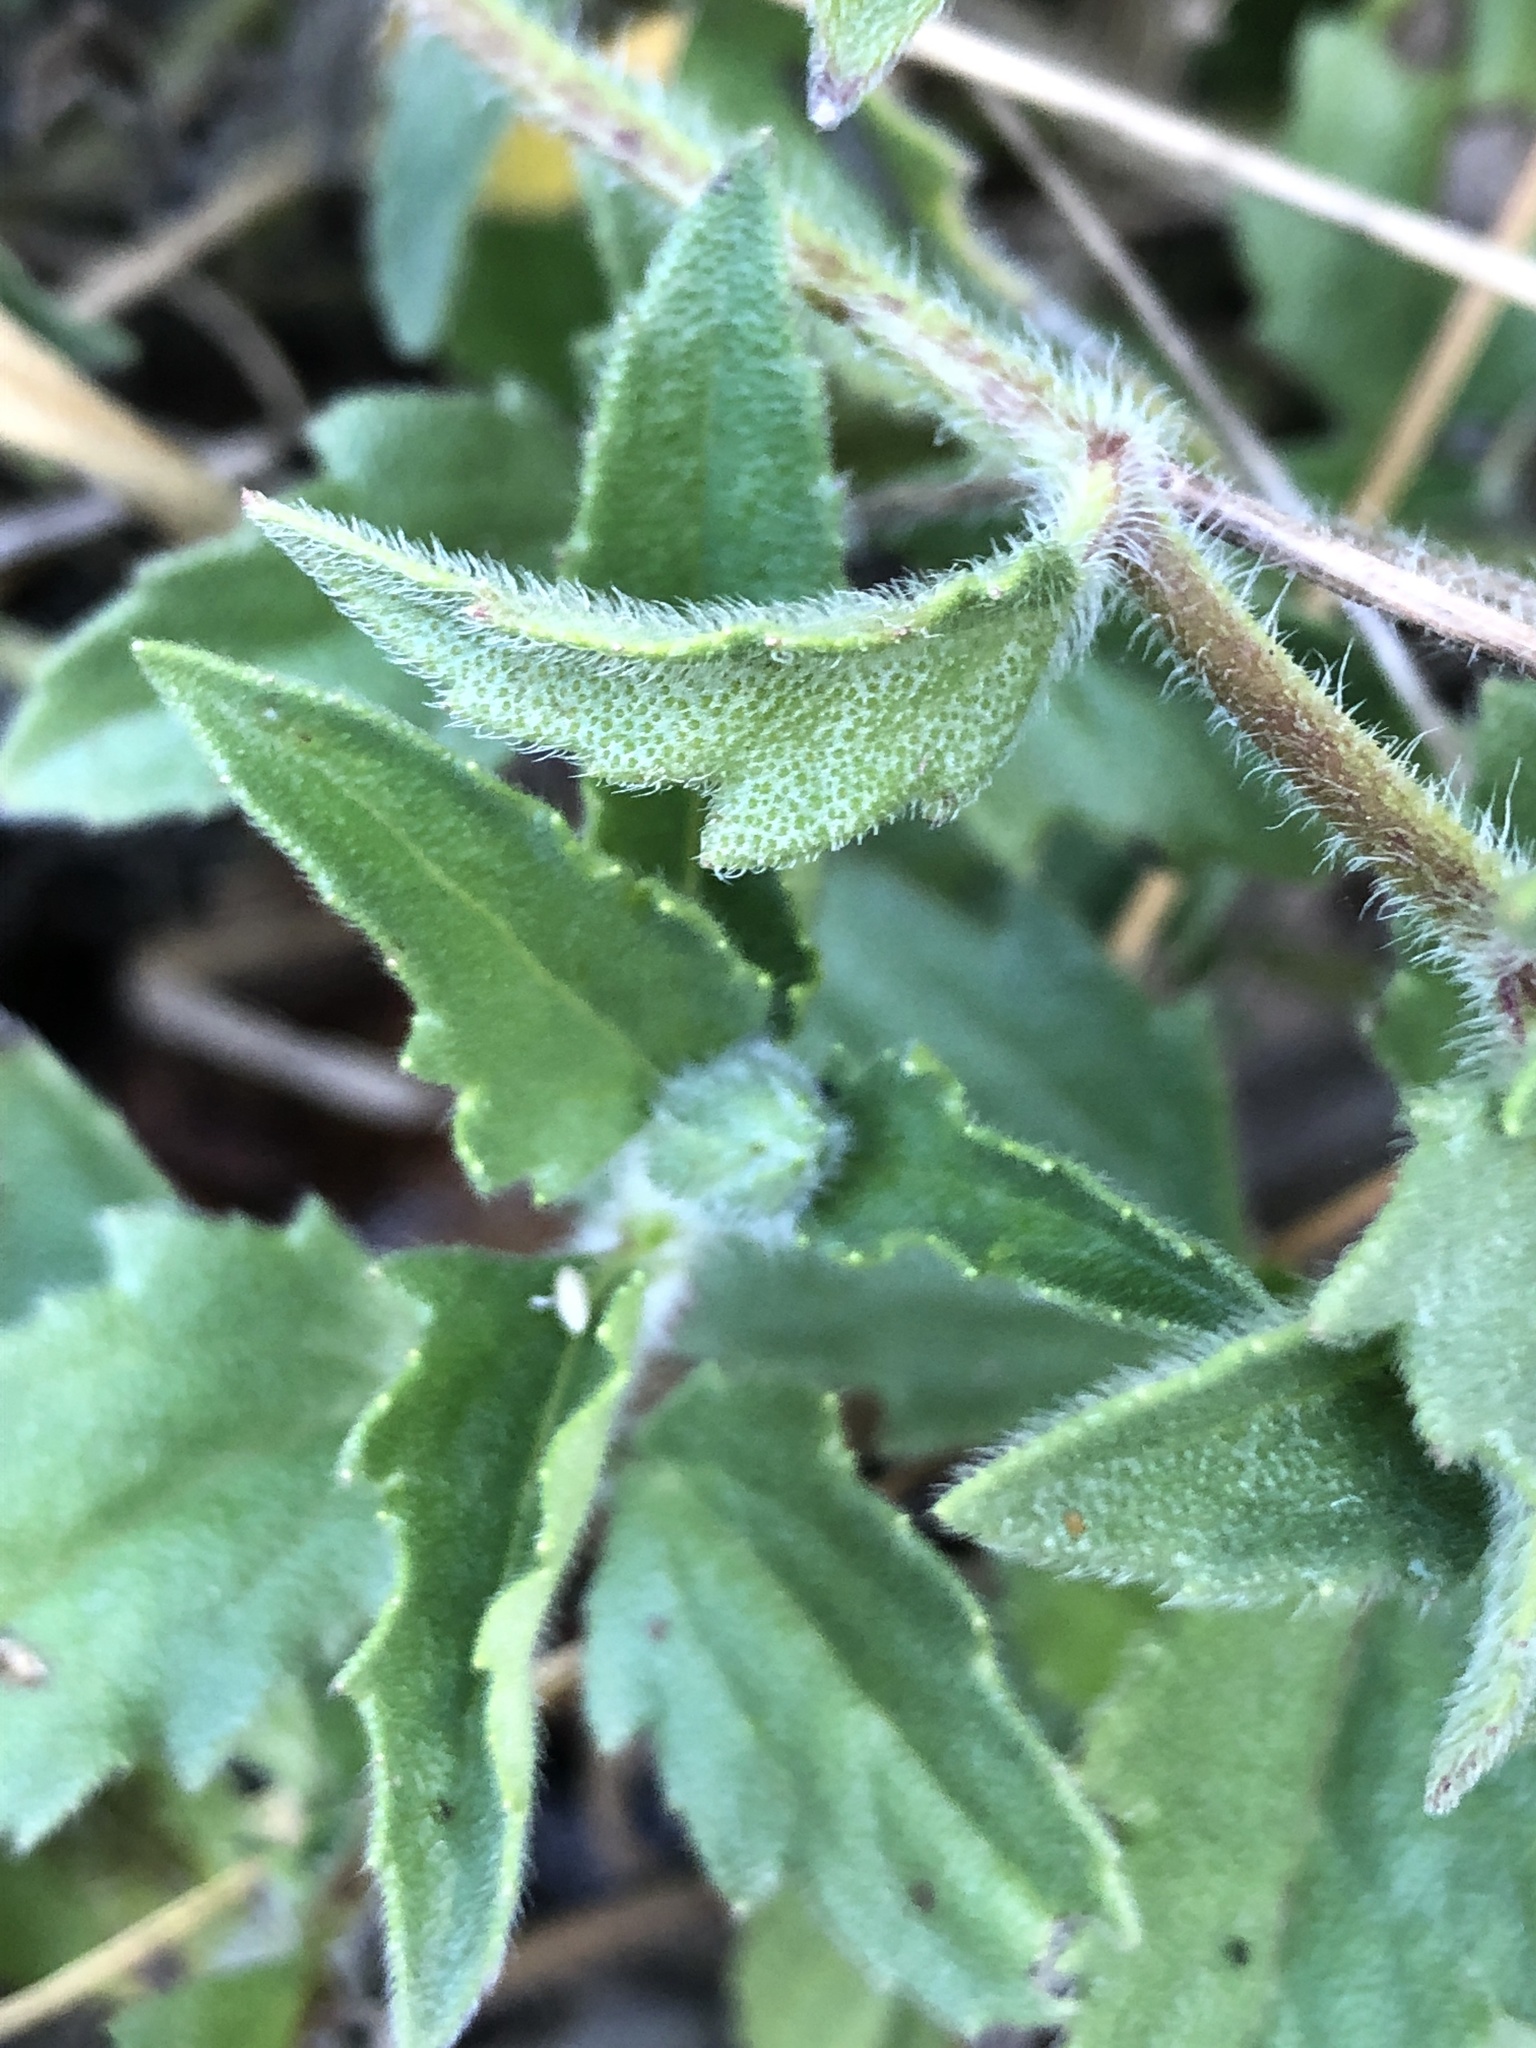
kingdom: Plantae
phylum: Tracheophyta
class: Magnoliopsida
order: Asterales
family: Asteraceae
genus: Tridax
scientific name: Tridax procumbens
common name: Coatbuttons
